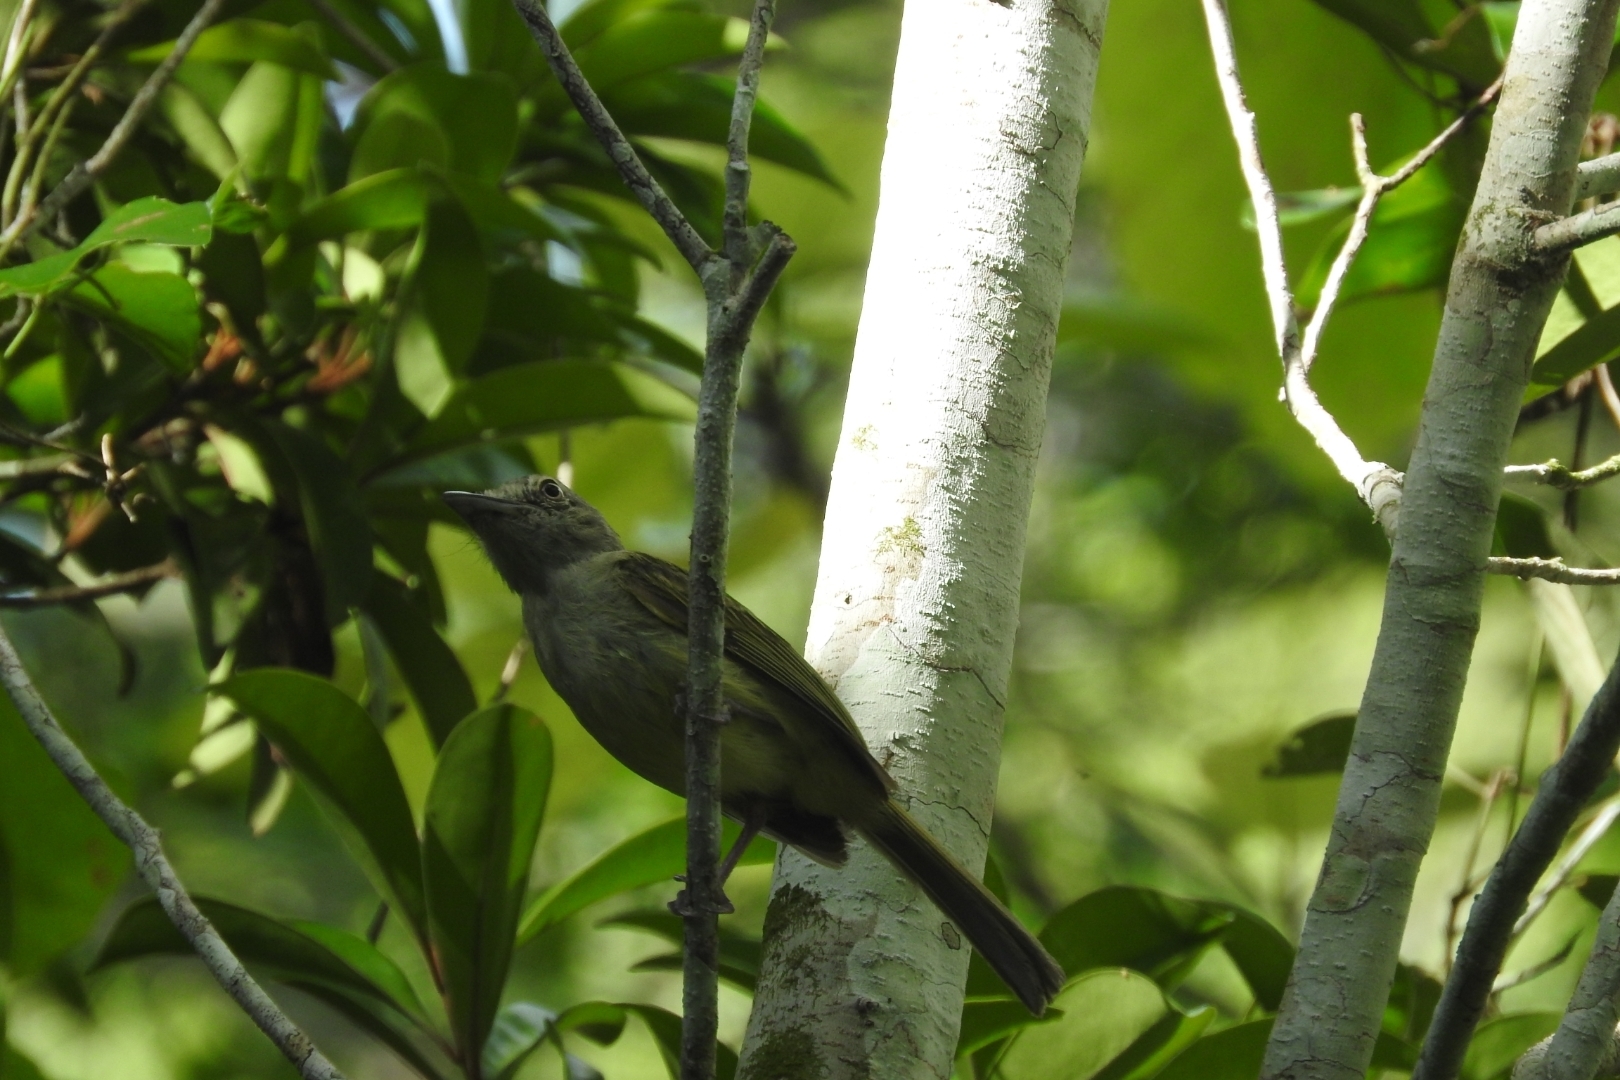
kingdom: Animalia
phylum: Chordata
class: Aves
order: Passeriformes
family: Tyrannidae
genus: Tolmomyias
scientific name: Tolmomyias sulphurescens
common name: Yellow-olive flycatcher
